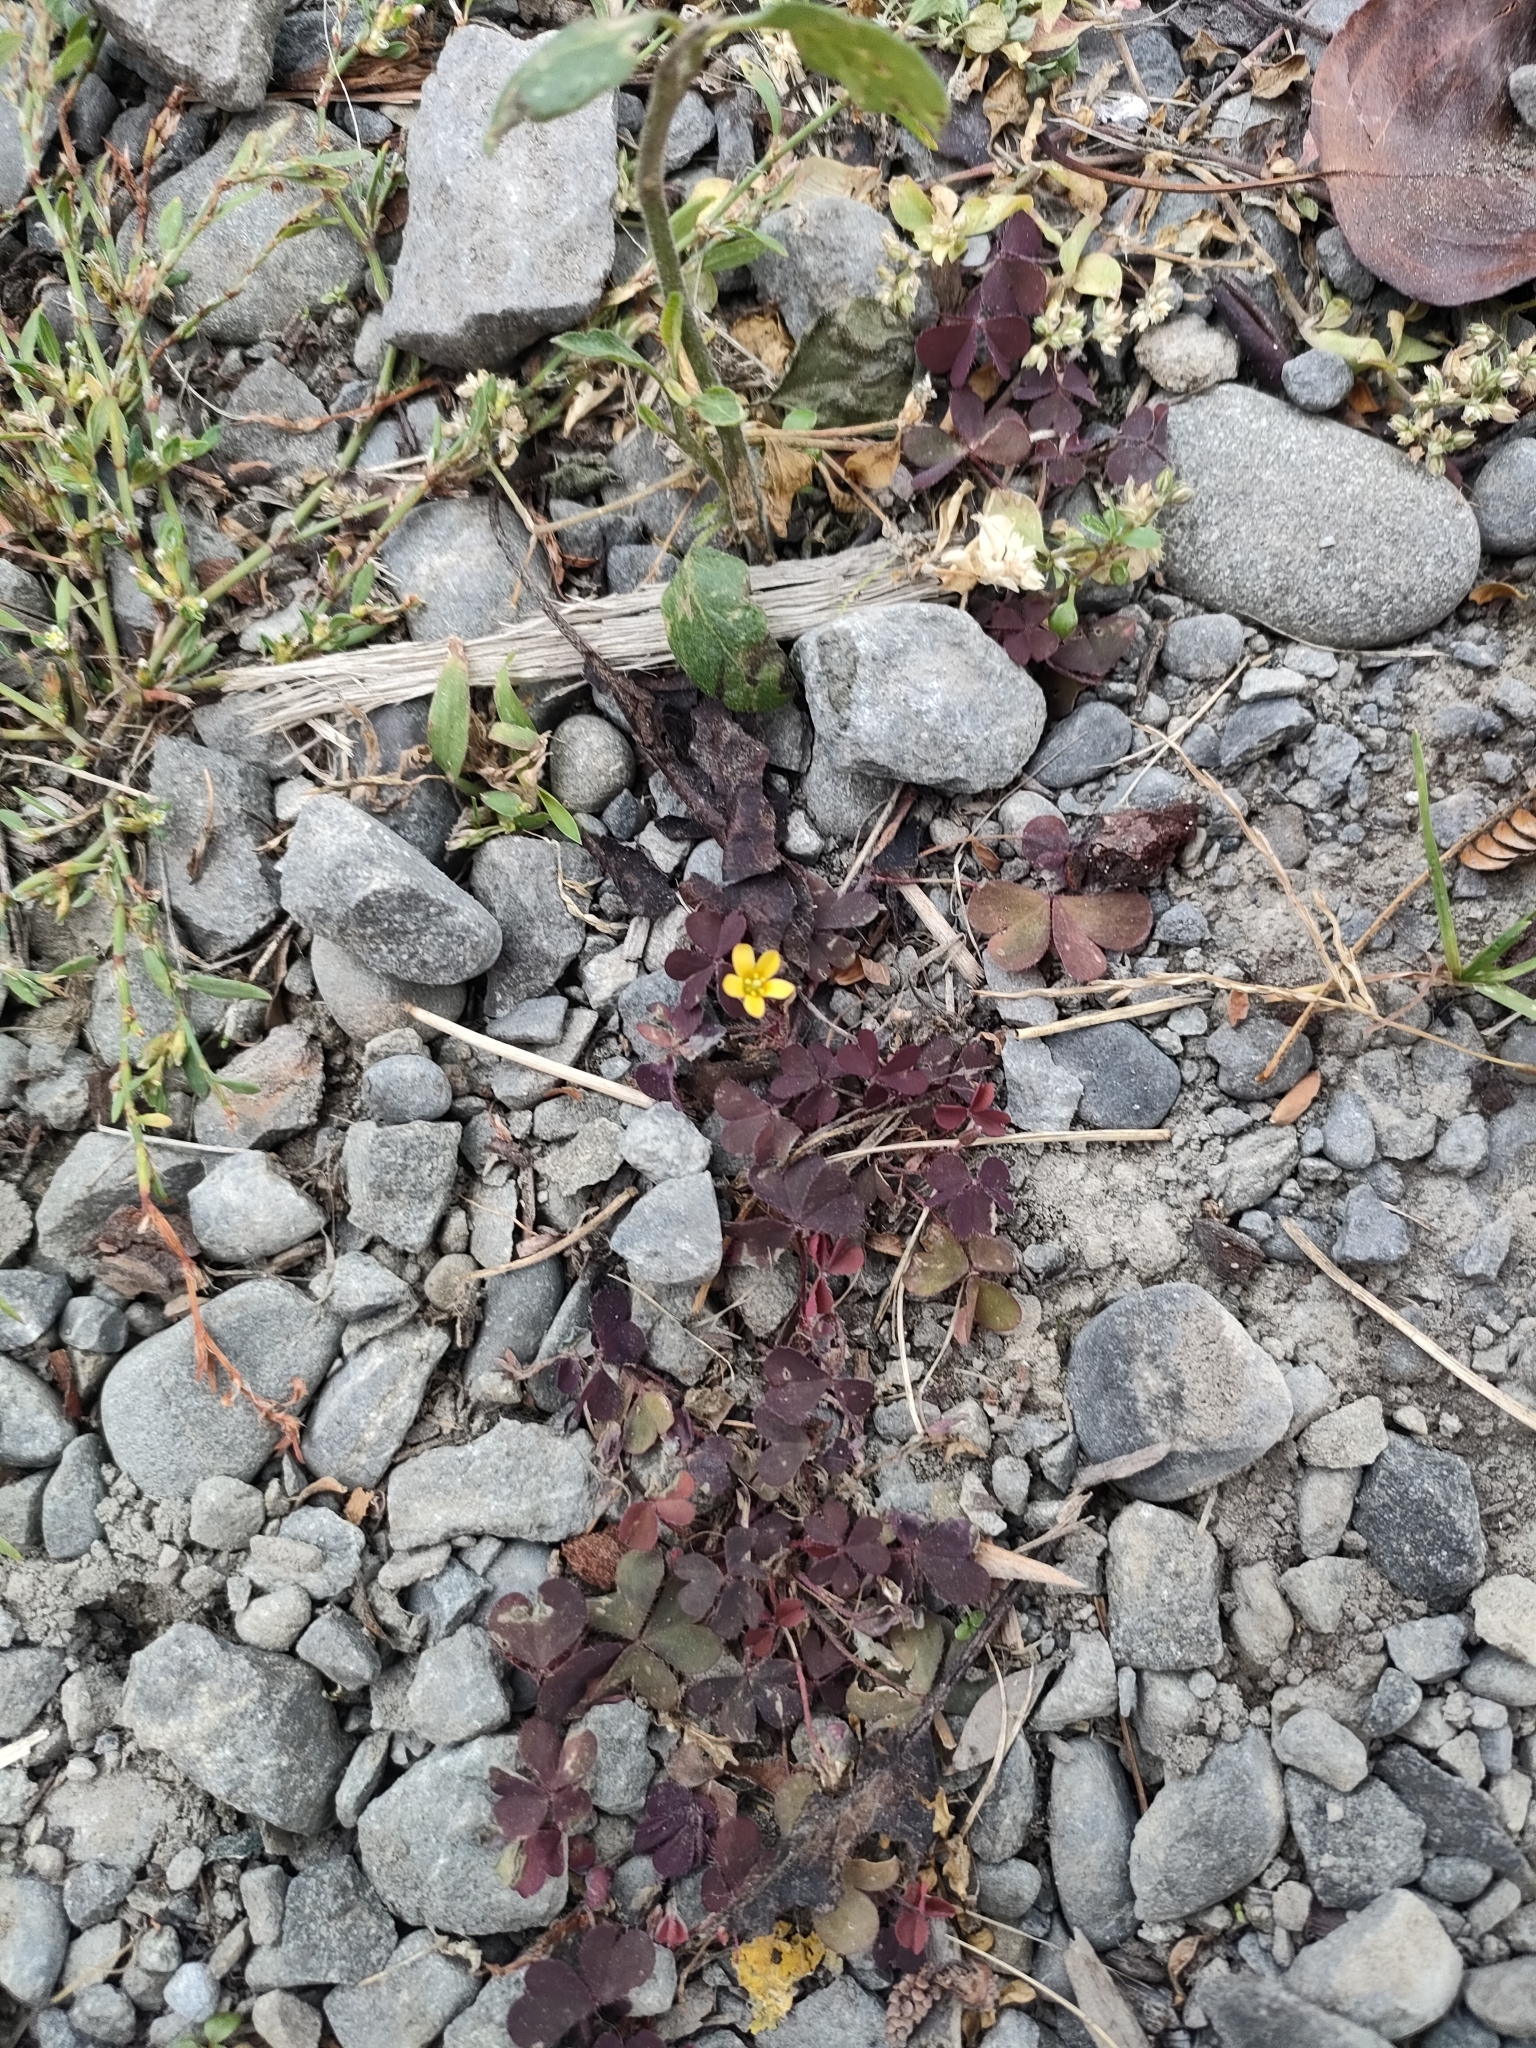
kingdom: Plantae
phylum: Tracheophyta
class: Magnoliopsida
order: Oxalidales
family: Oxalidaceae
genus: Oxalis
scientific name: Oxalis corniculata
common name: Procumbent yellow-sorrel
